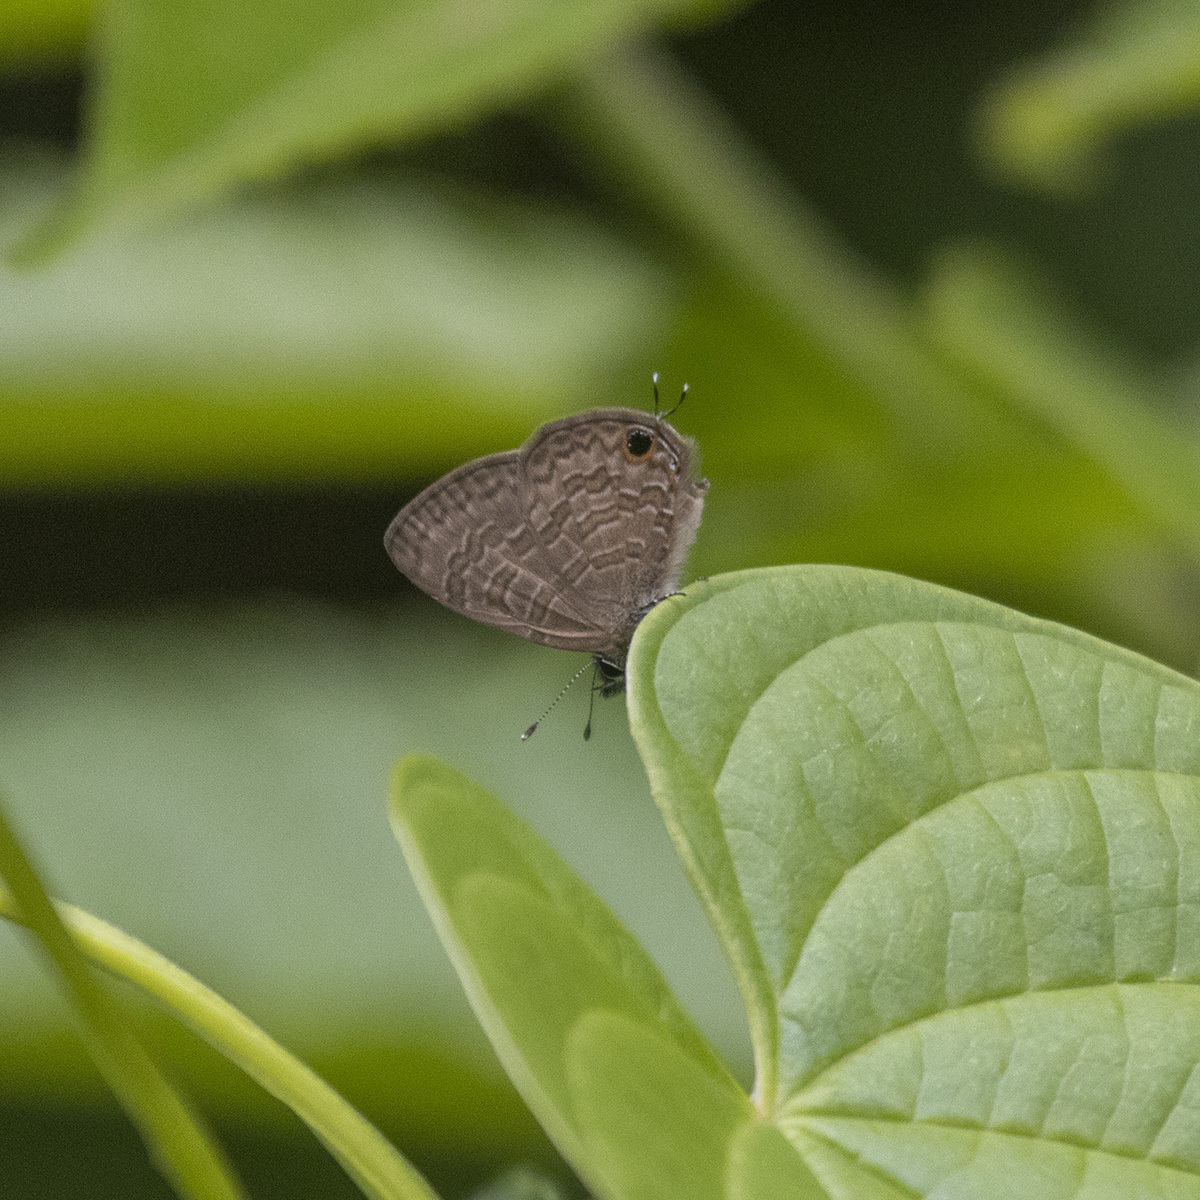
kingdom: Animalia
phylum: Arthropoda
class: Insecta
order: Lepidoptera
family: Lycaenidae
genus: Prosotas
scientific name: Prosotas nora
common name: Common line blue
